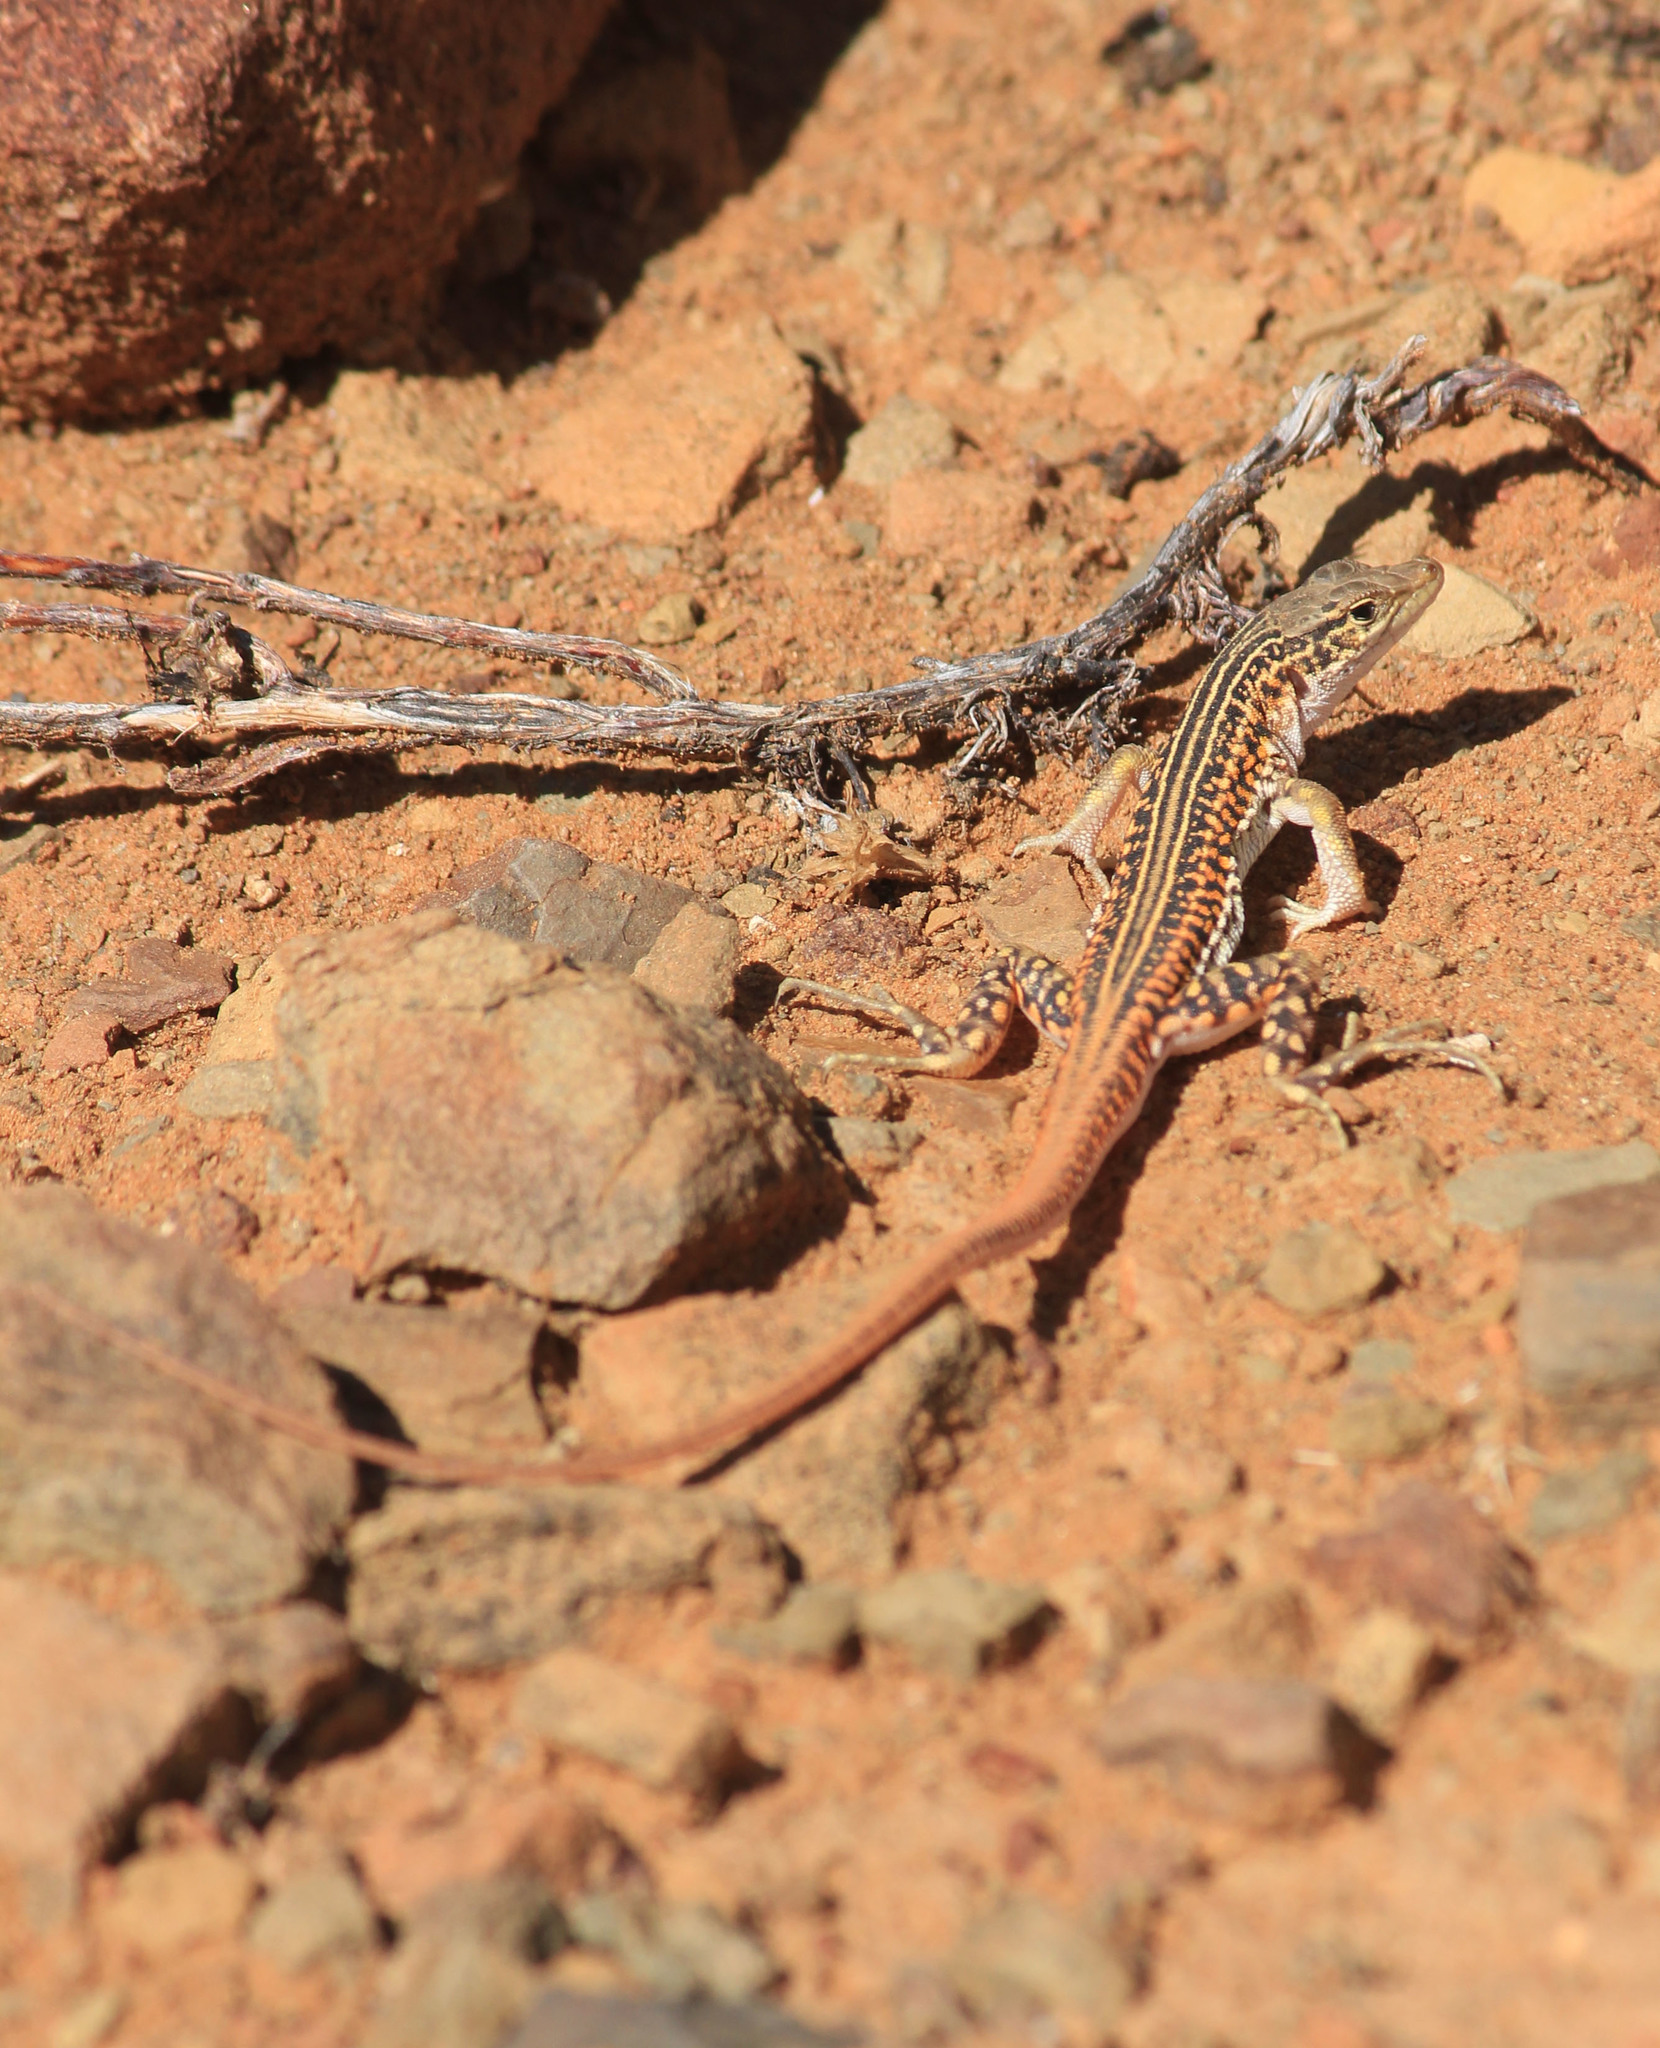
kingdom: Animalia
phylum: Chordata
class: Squamata
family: Lacertidae
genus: Pedioplanis
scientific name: Pedioplanis laticeps
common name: Karoo sand lizard
